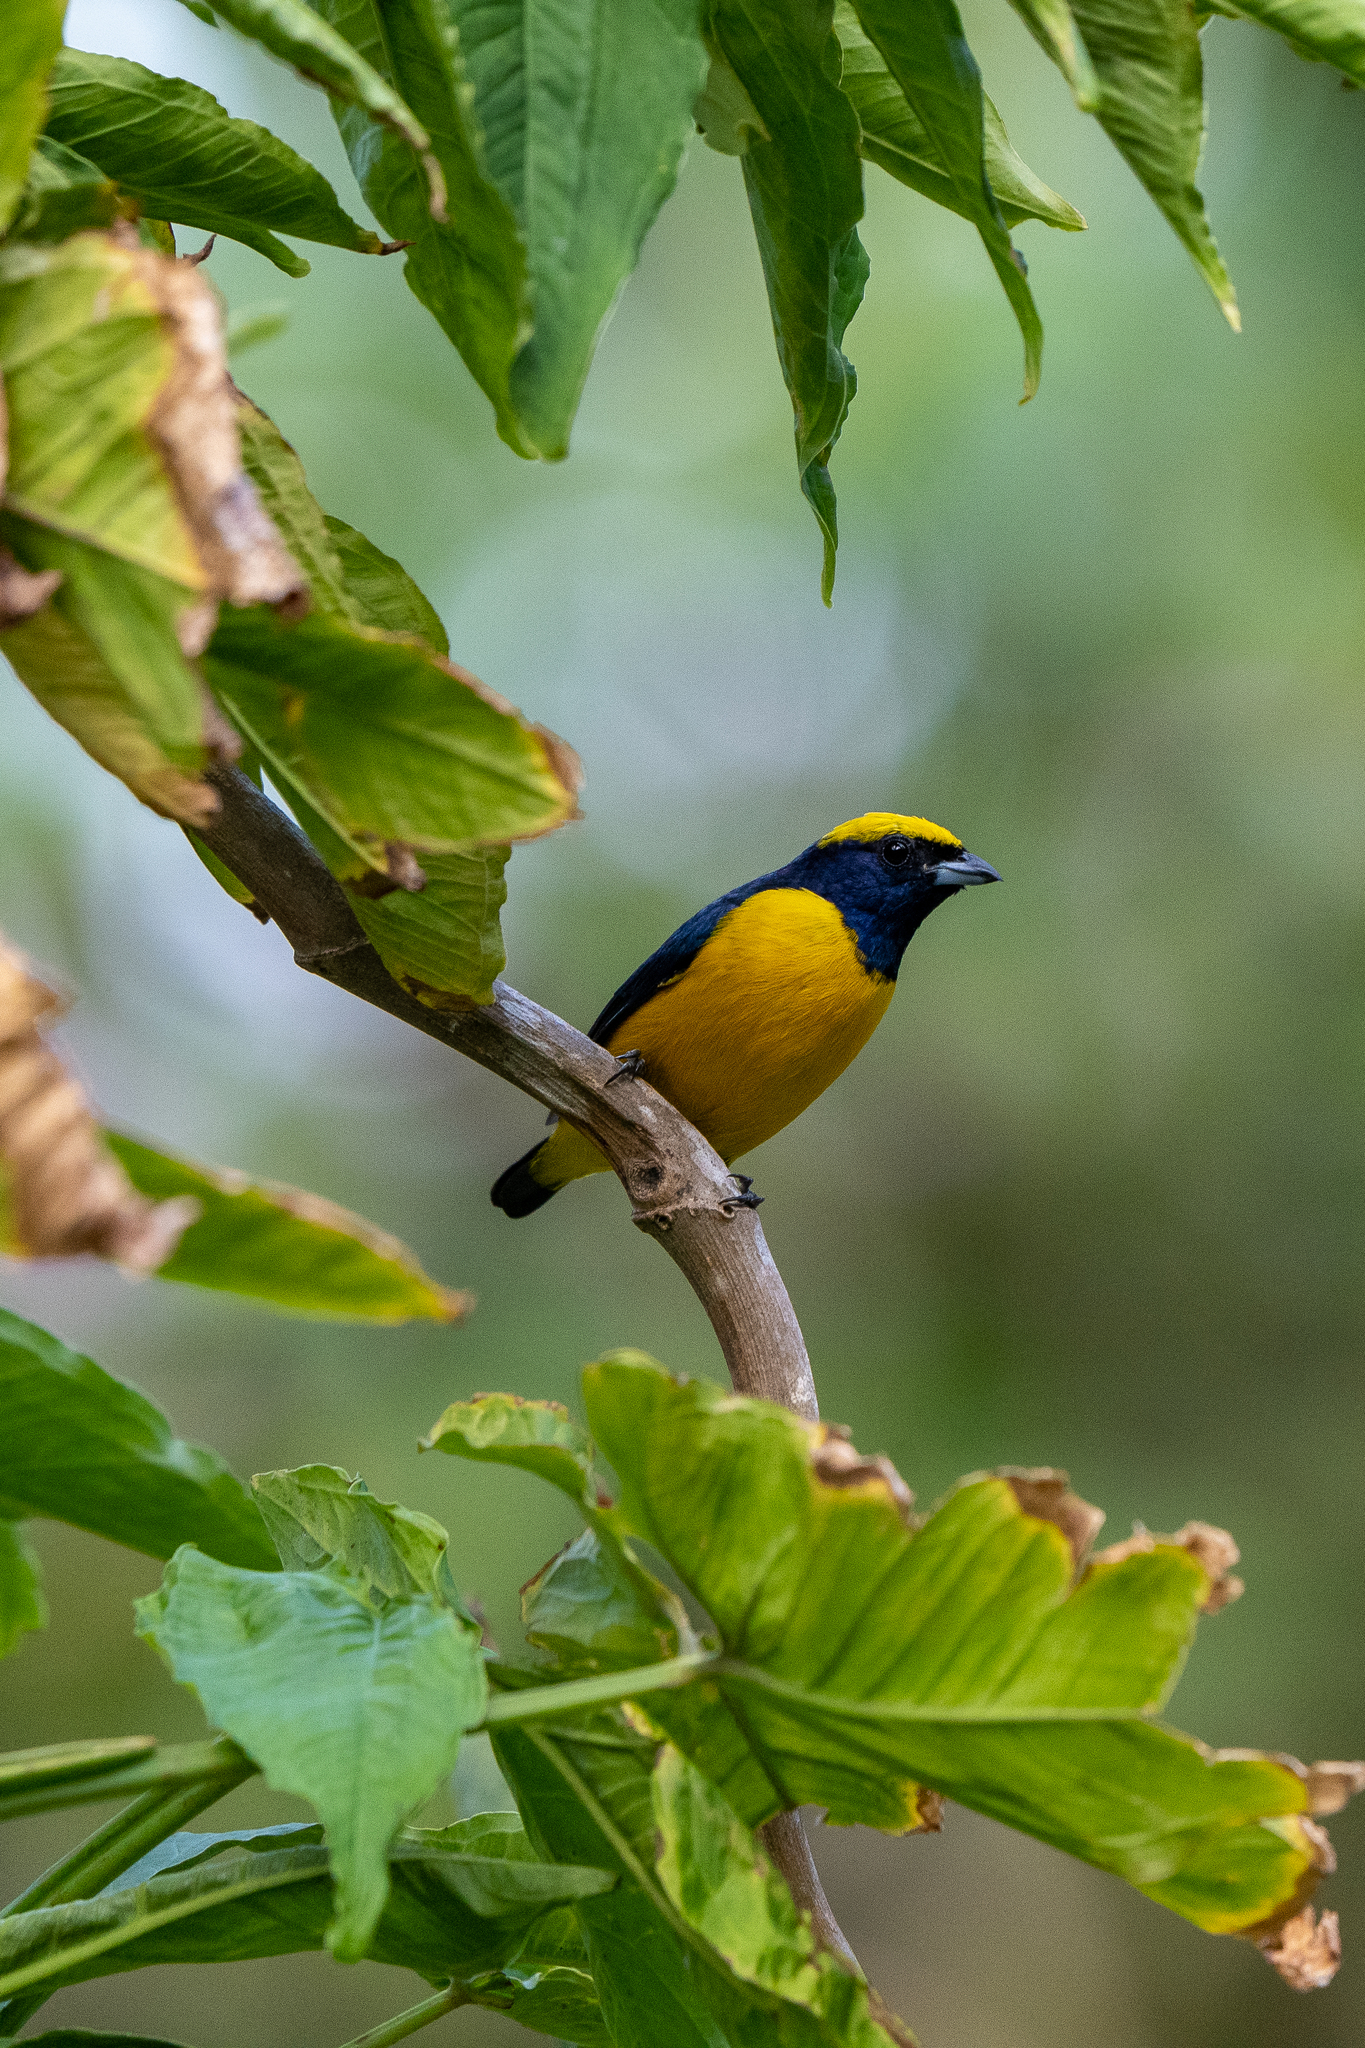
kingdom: Animalia
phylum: Chordata
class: Aves
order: Passeriformes
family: Fringillidae
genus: Euphonia
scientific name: Euphonia luteicapilla
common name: Yellow-crowned euphonia
